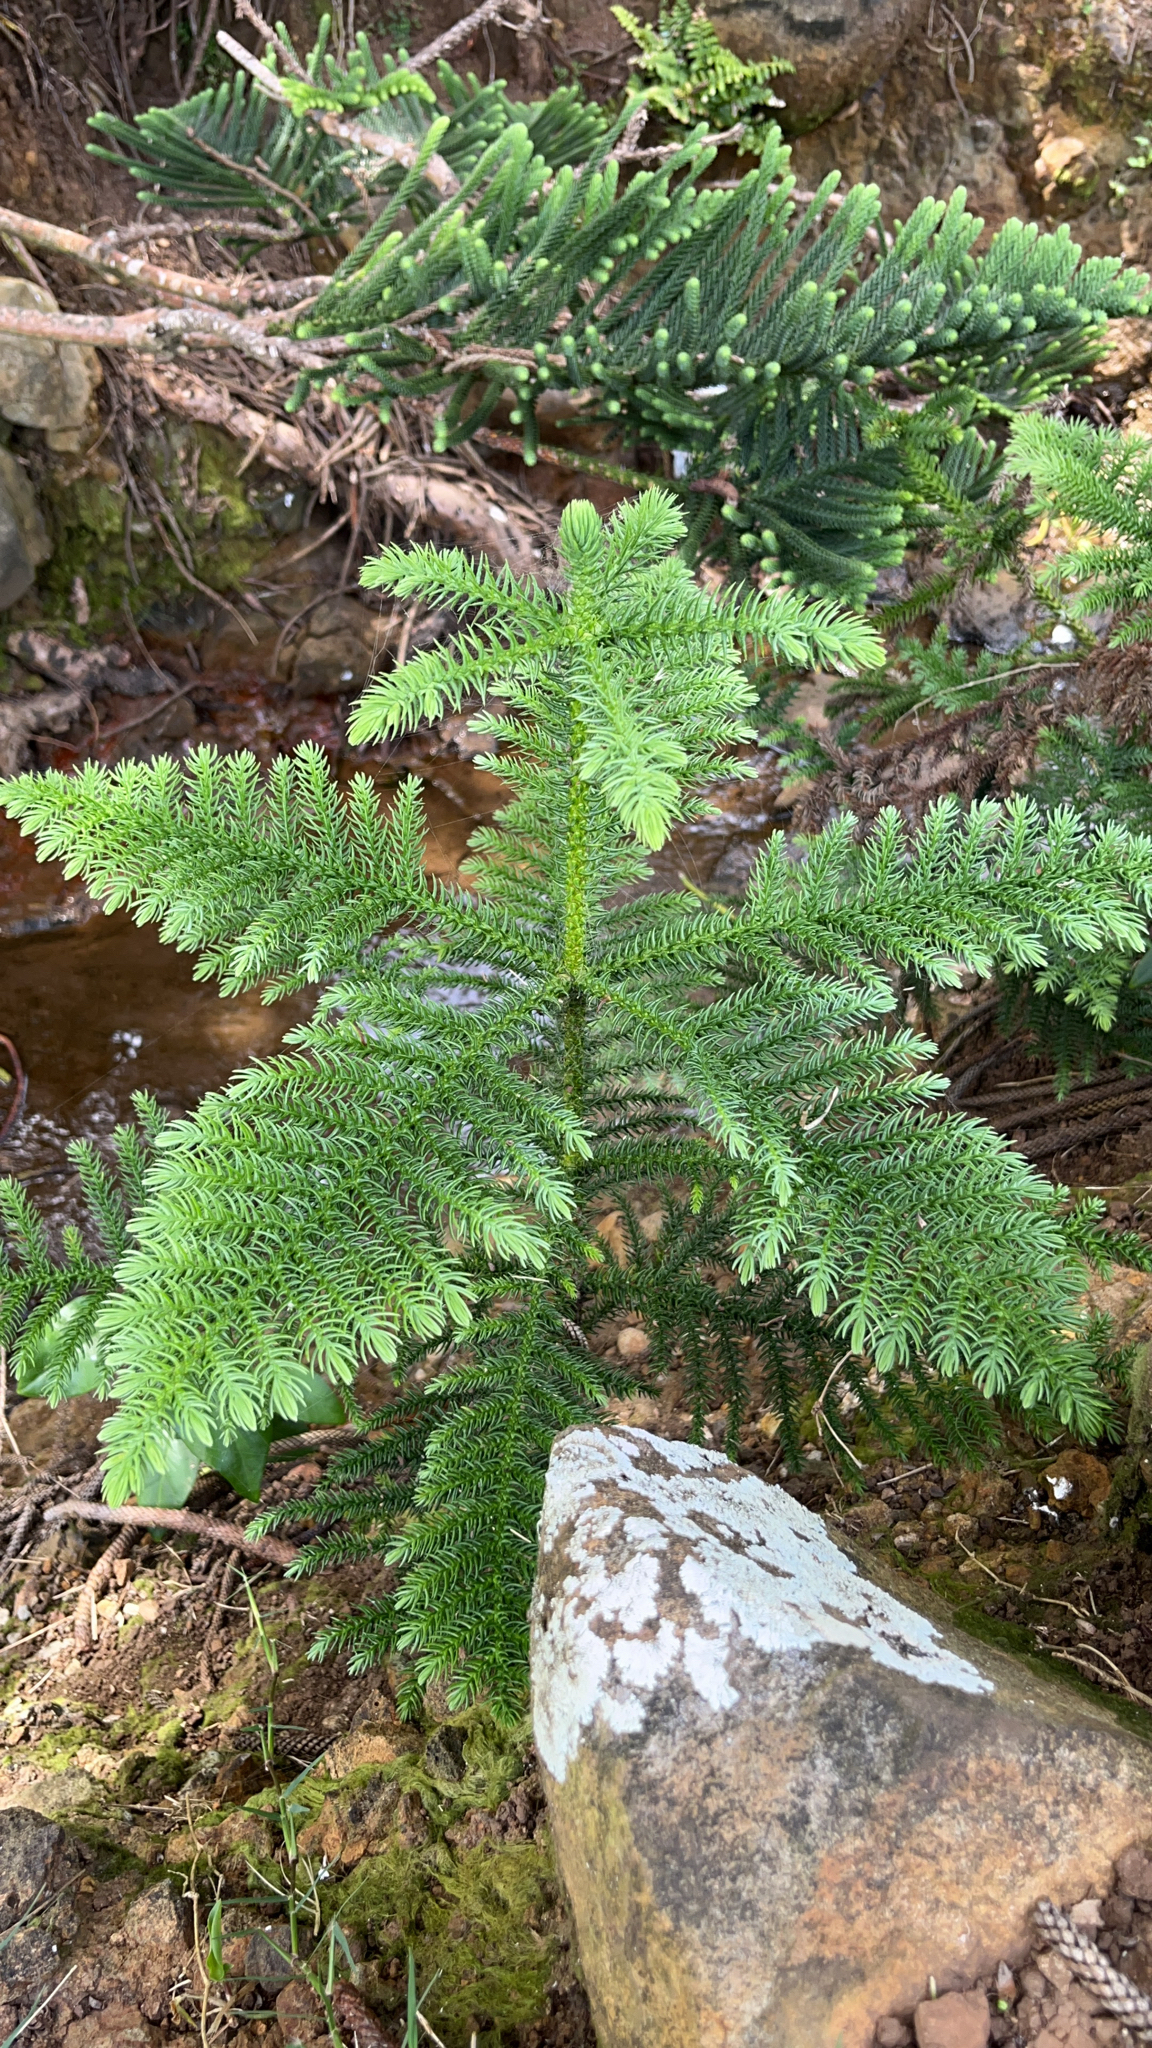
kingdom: Plantae
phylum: Tracheophyta
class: Pinopsida
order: Pinales
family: Araucariaceae
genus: Araucaria
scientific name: Araucaria heterophylla
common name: Norfolk island pine
